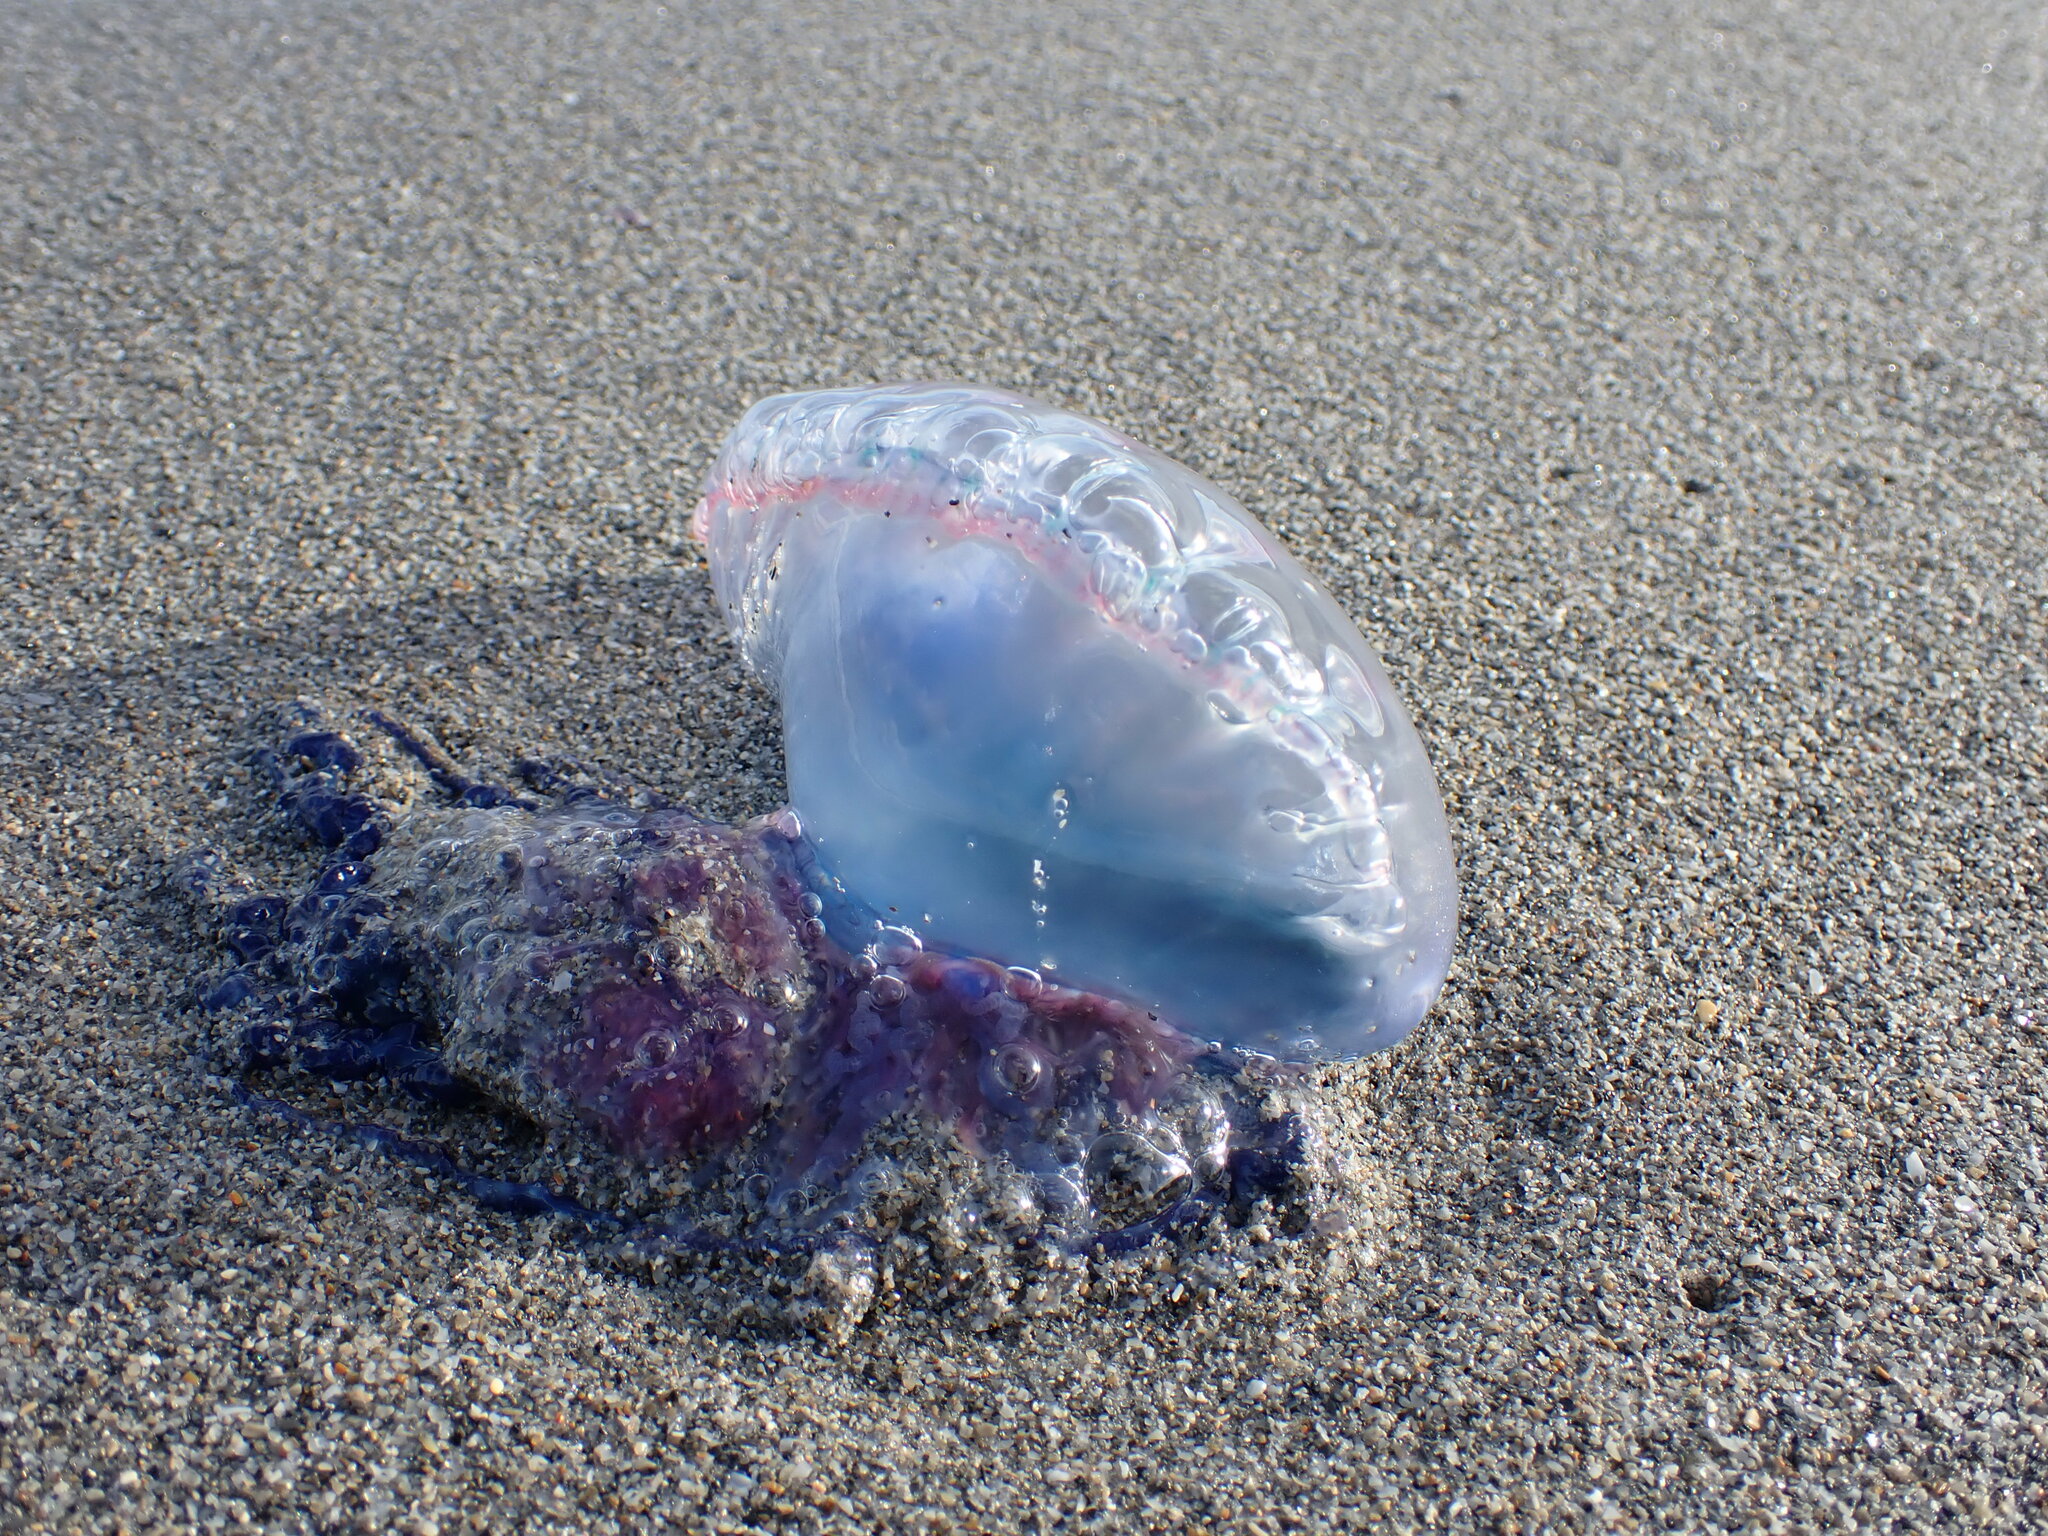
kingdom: Animalia
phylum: Cnidaria
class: Hydrozoa
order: Siphonophorae
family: Physaliidae
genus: Physalia
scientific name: Physalia physalis
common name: Portuguese man-of-war
